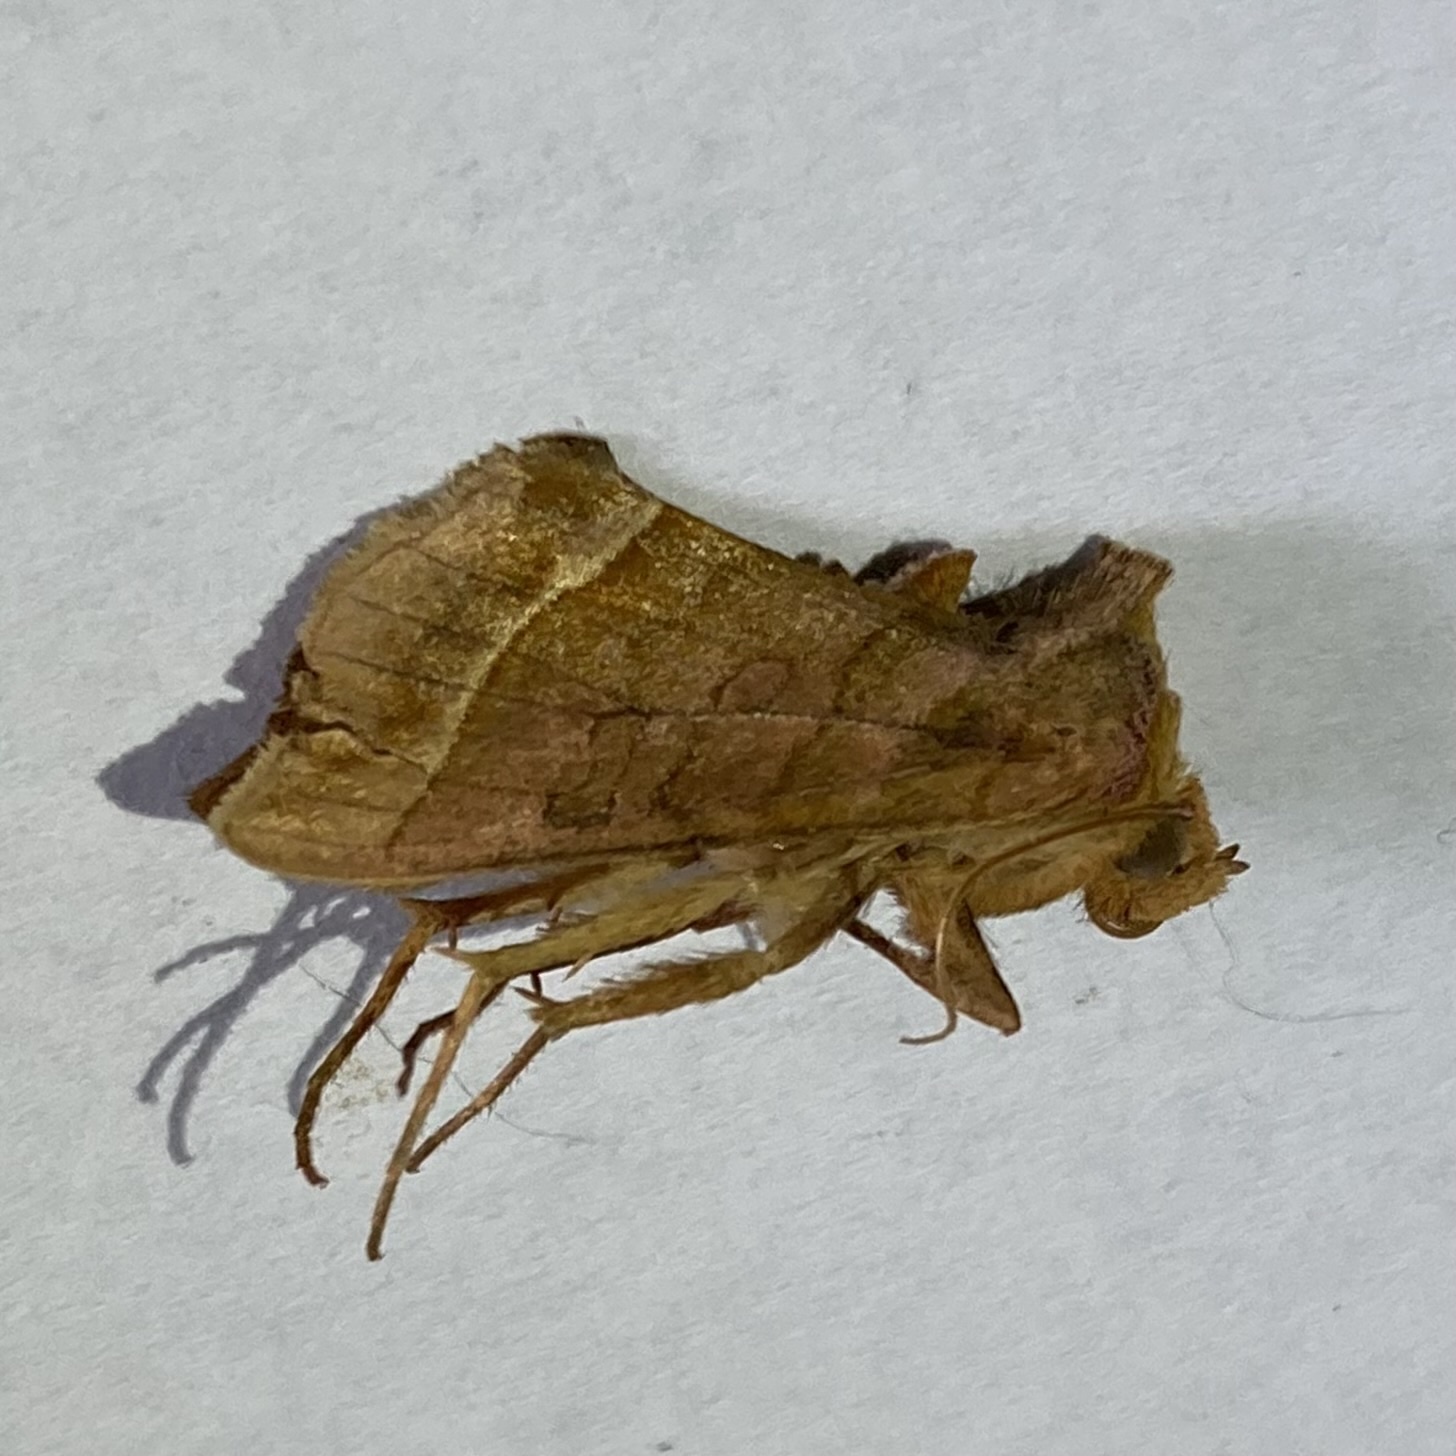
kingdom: Animalia
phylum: Arthropoda
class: Insecta
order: Lepidoptera
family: Noctuidae
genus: Diachrysia
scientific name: Diachrysia aereoides
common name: Dark-spotted looper moth
